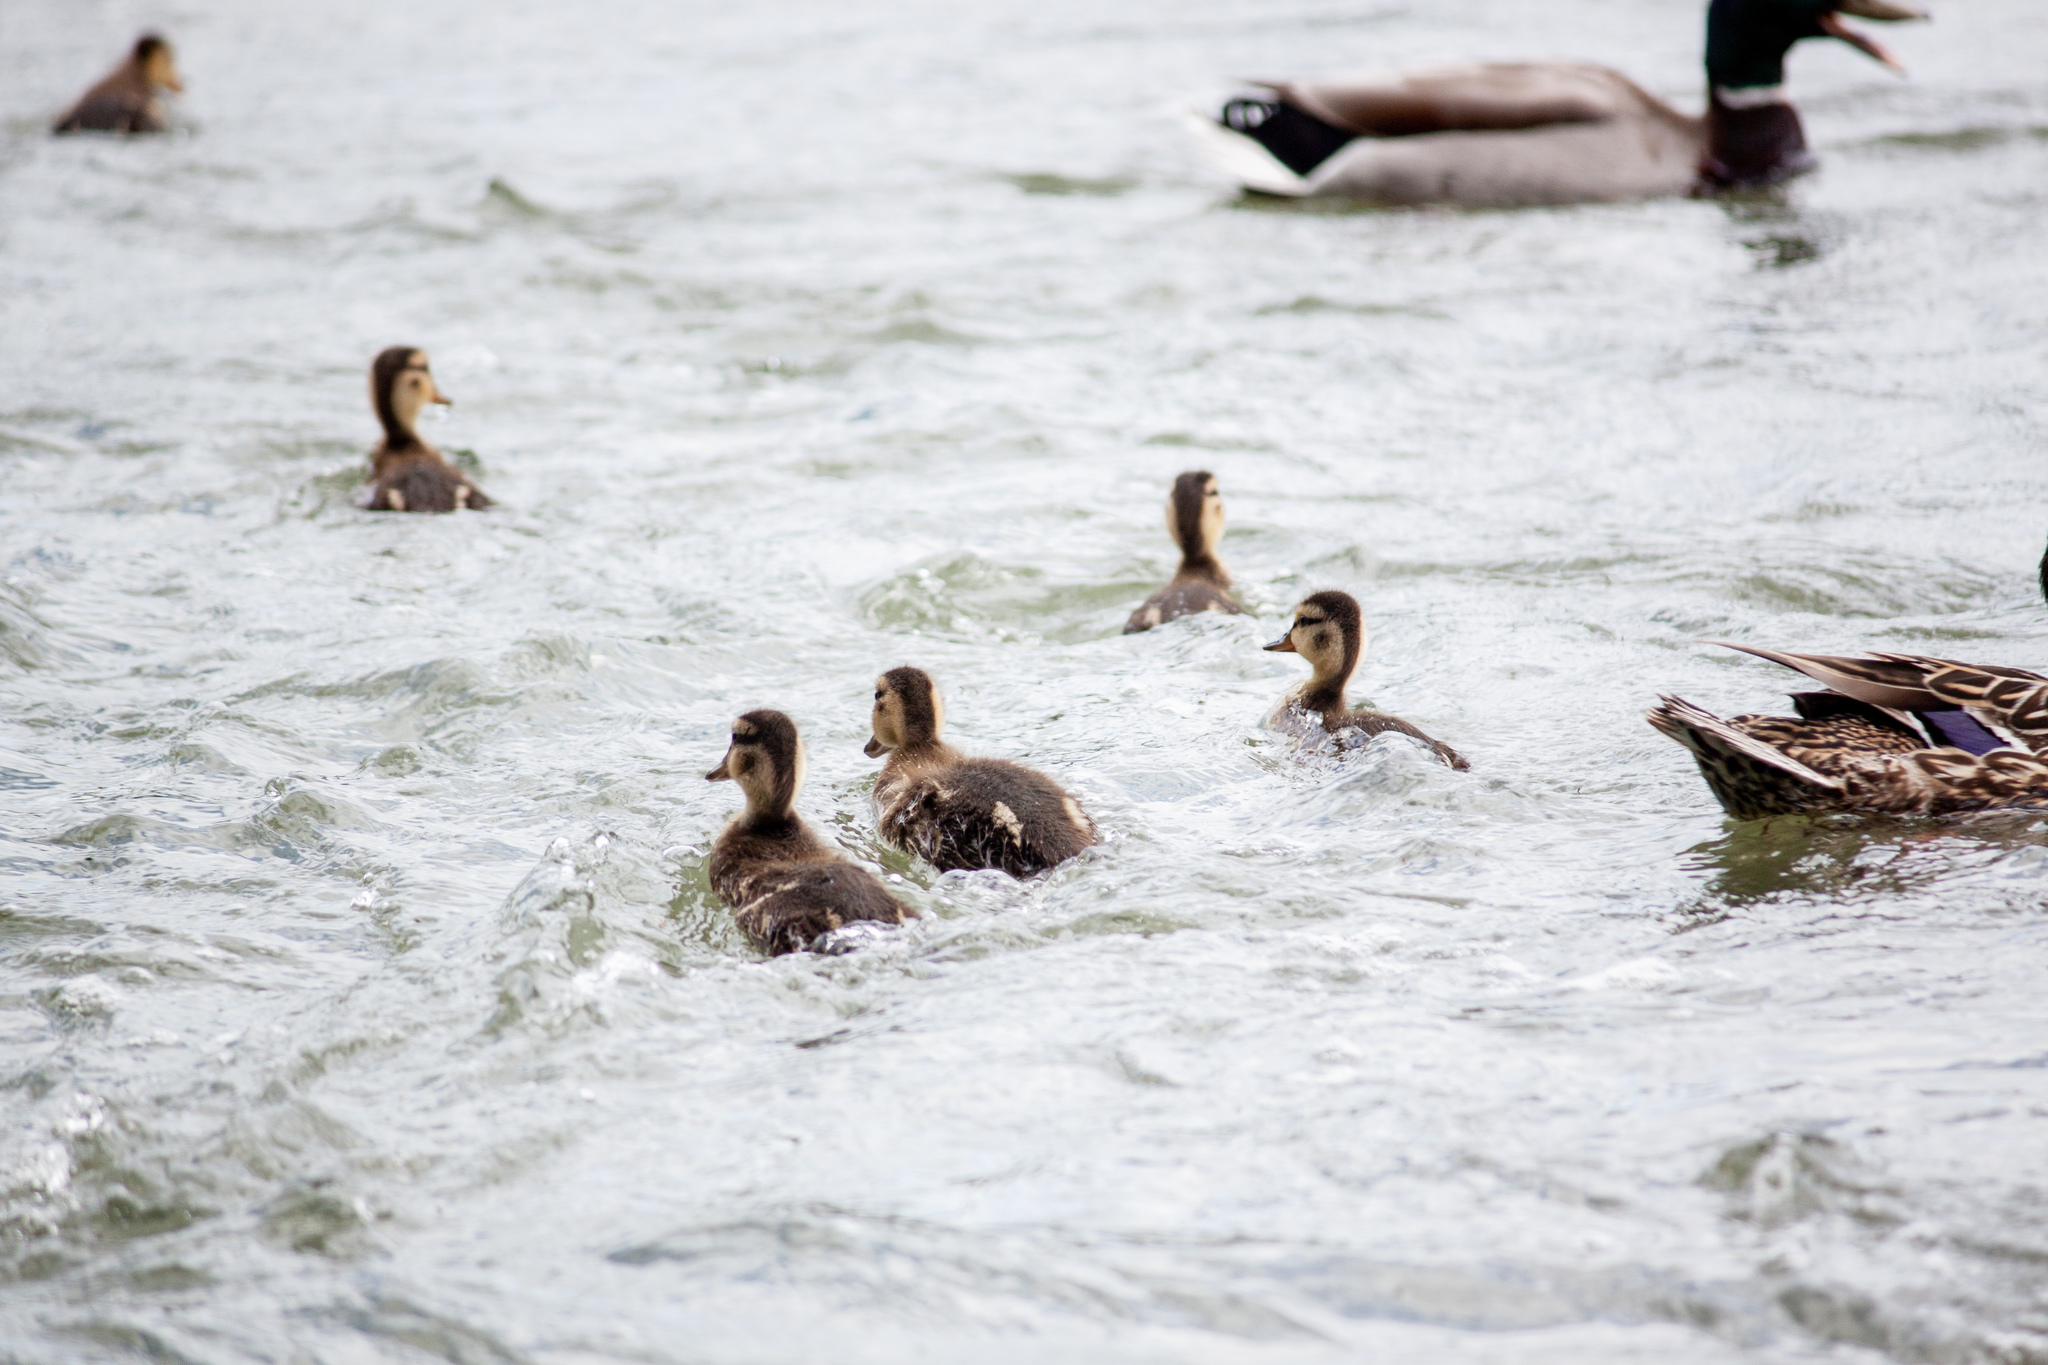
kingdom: Animalia
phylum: Chordata
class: Aves
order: Anseriformes
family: Anatidae
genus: Anas
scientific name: Anas platyrhynchos
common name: Mallard
